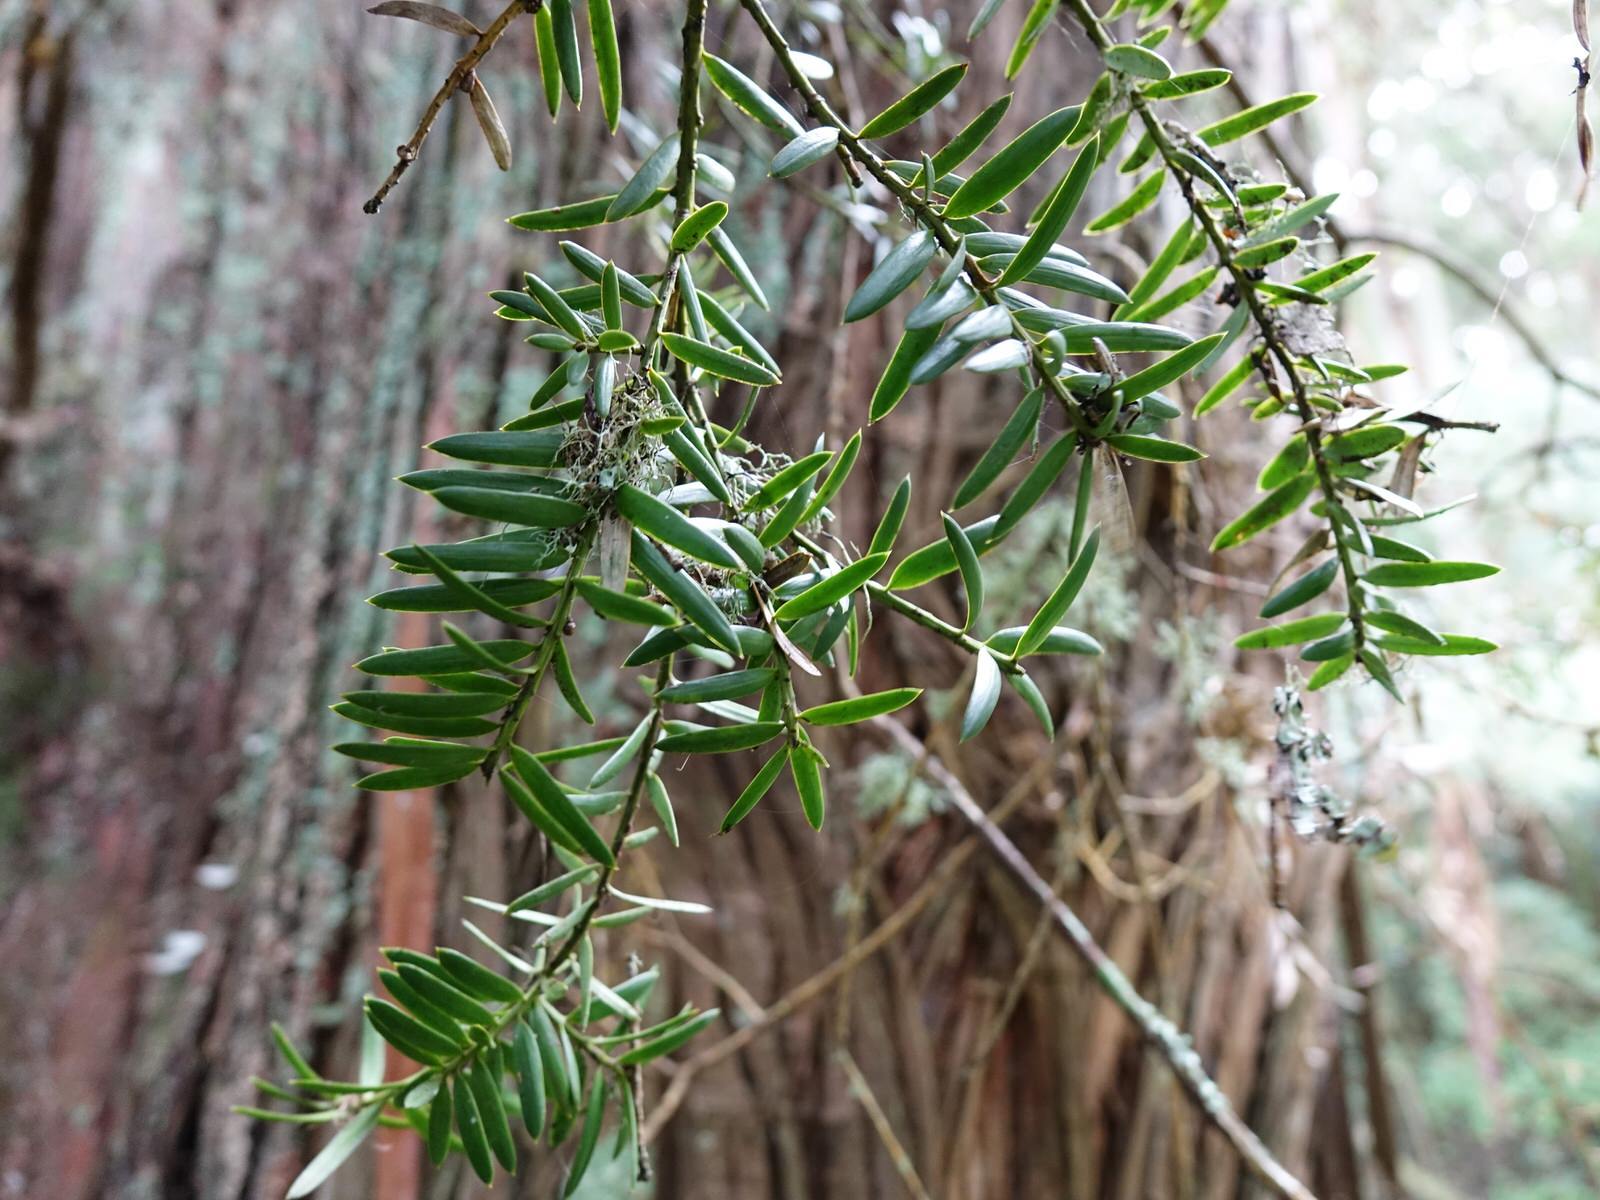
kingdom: Plantae
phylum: Tracheophyta
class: Pinopsida
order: Pinales
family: Podocarpaceae
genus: Podocarpus
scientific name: Podocarpus totara
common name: Totara
